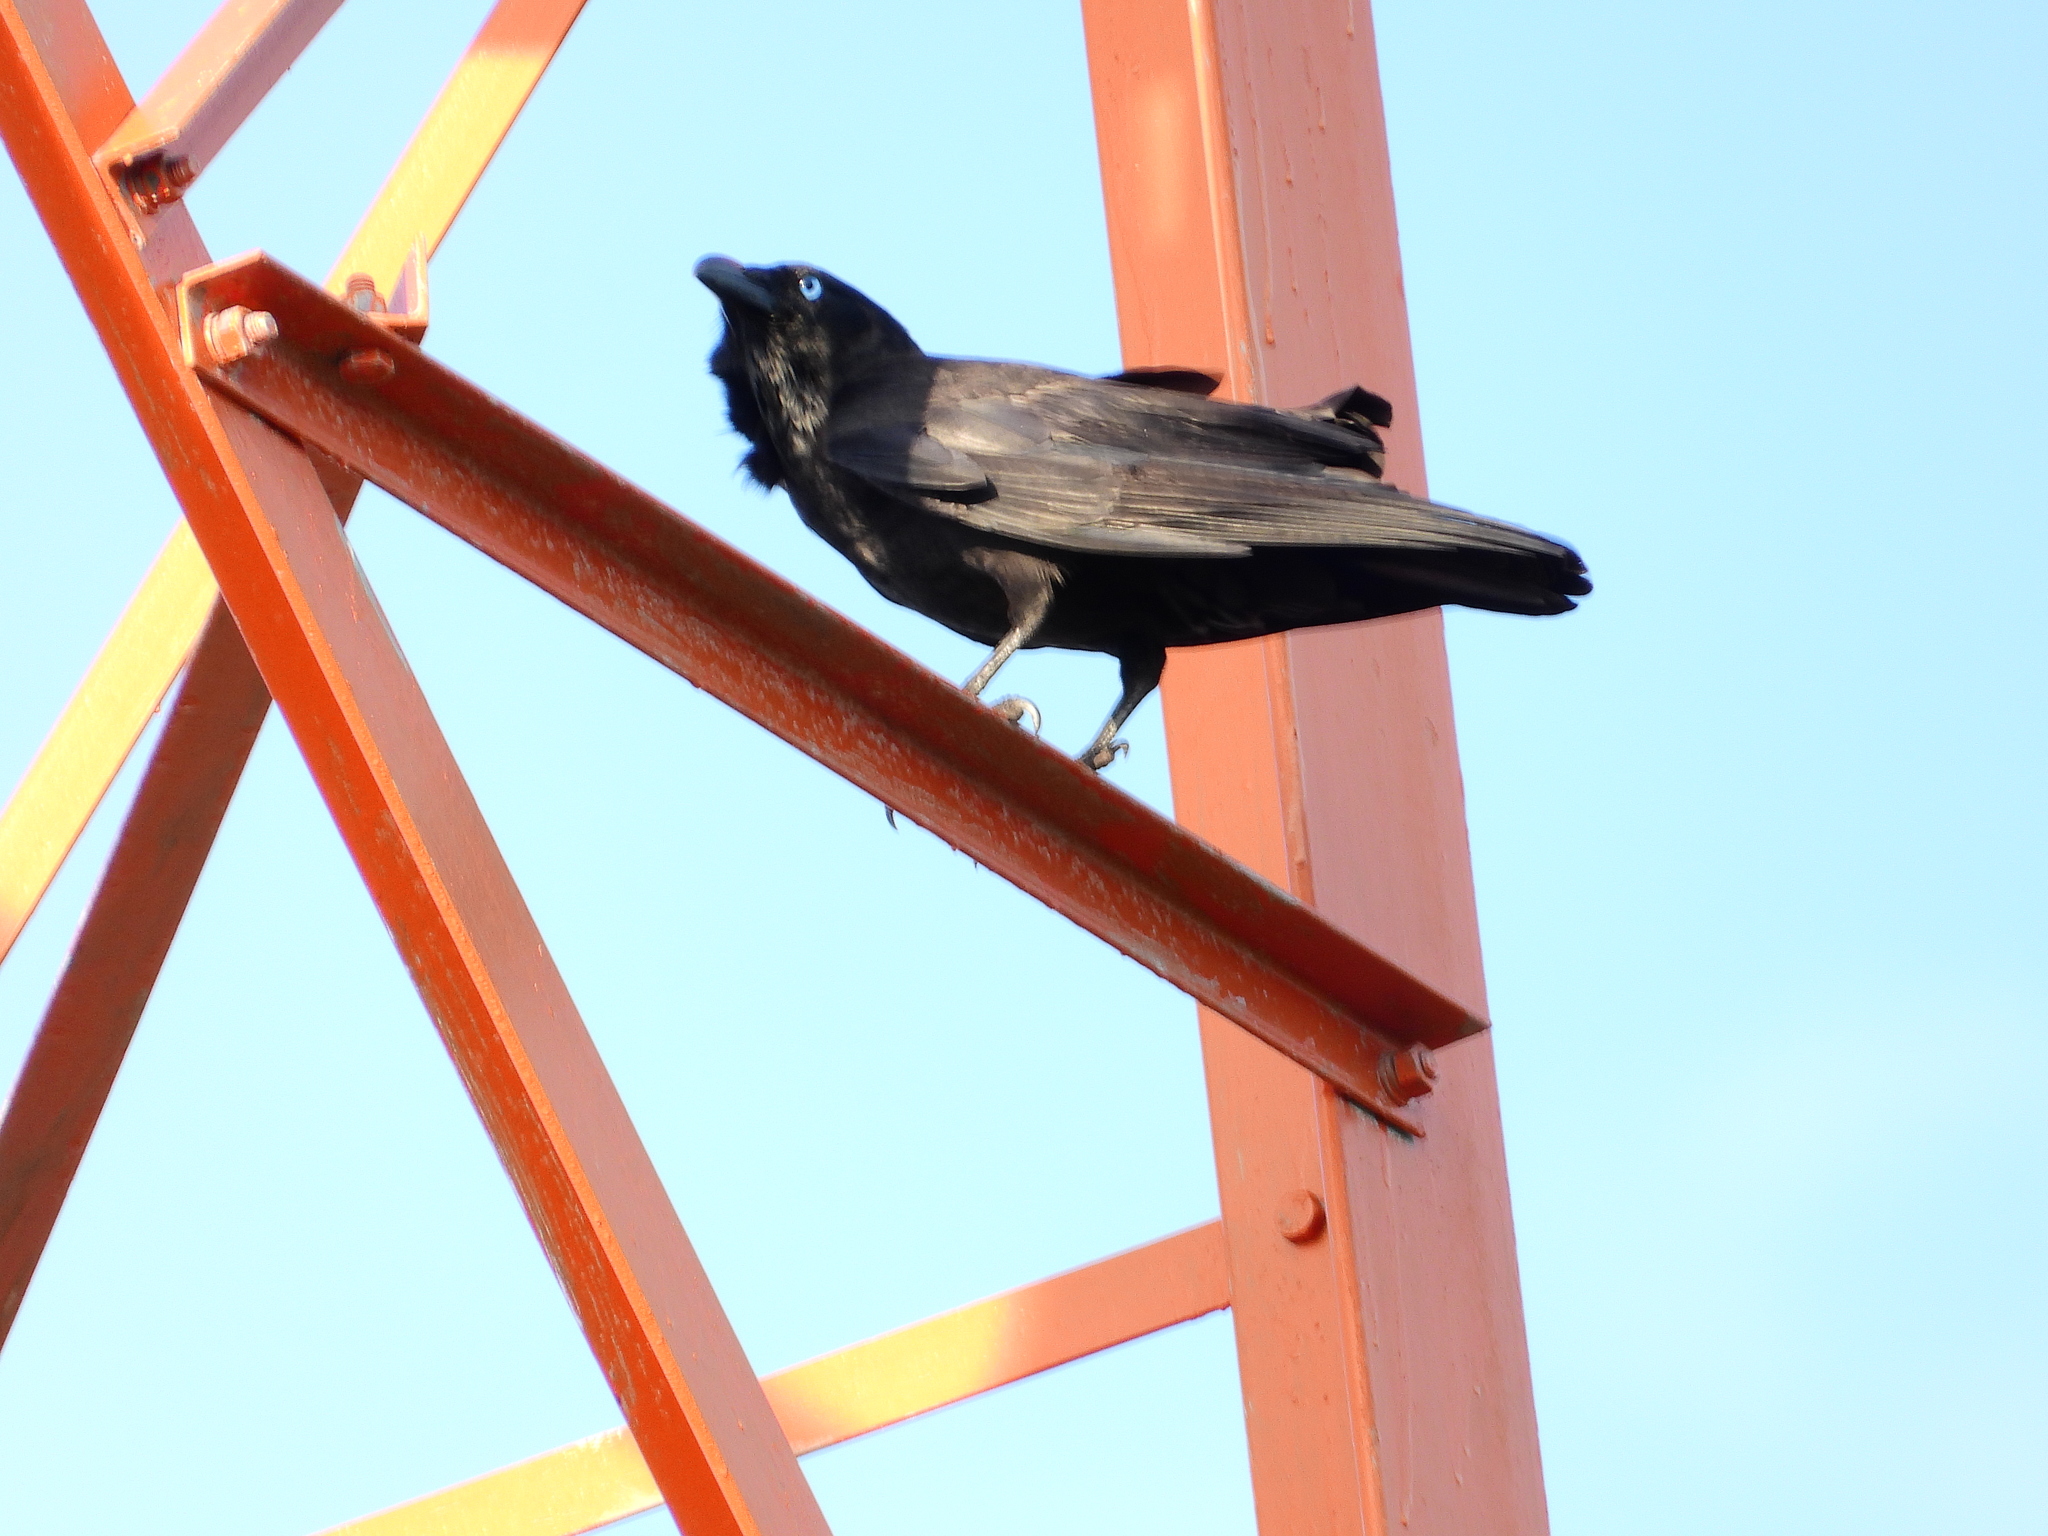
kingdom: Animalia
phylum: Chordata
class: Aves
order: Passeriformes
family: Corvidae
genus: Corvus
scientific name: Corvus orru
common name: Torresian crow
